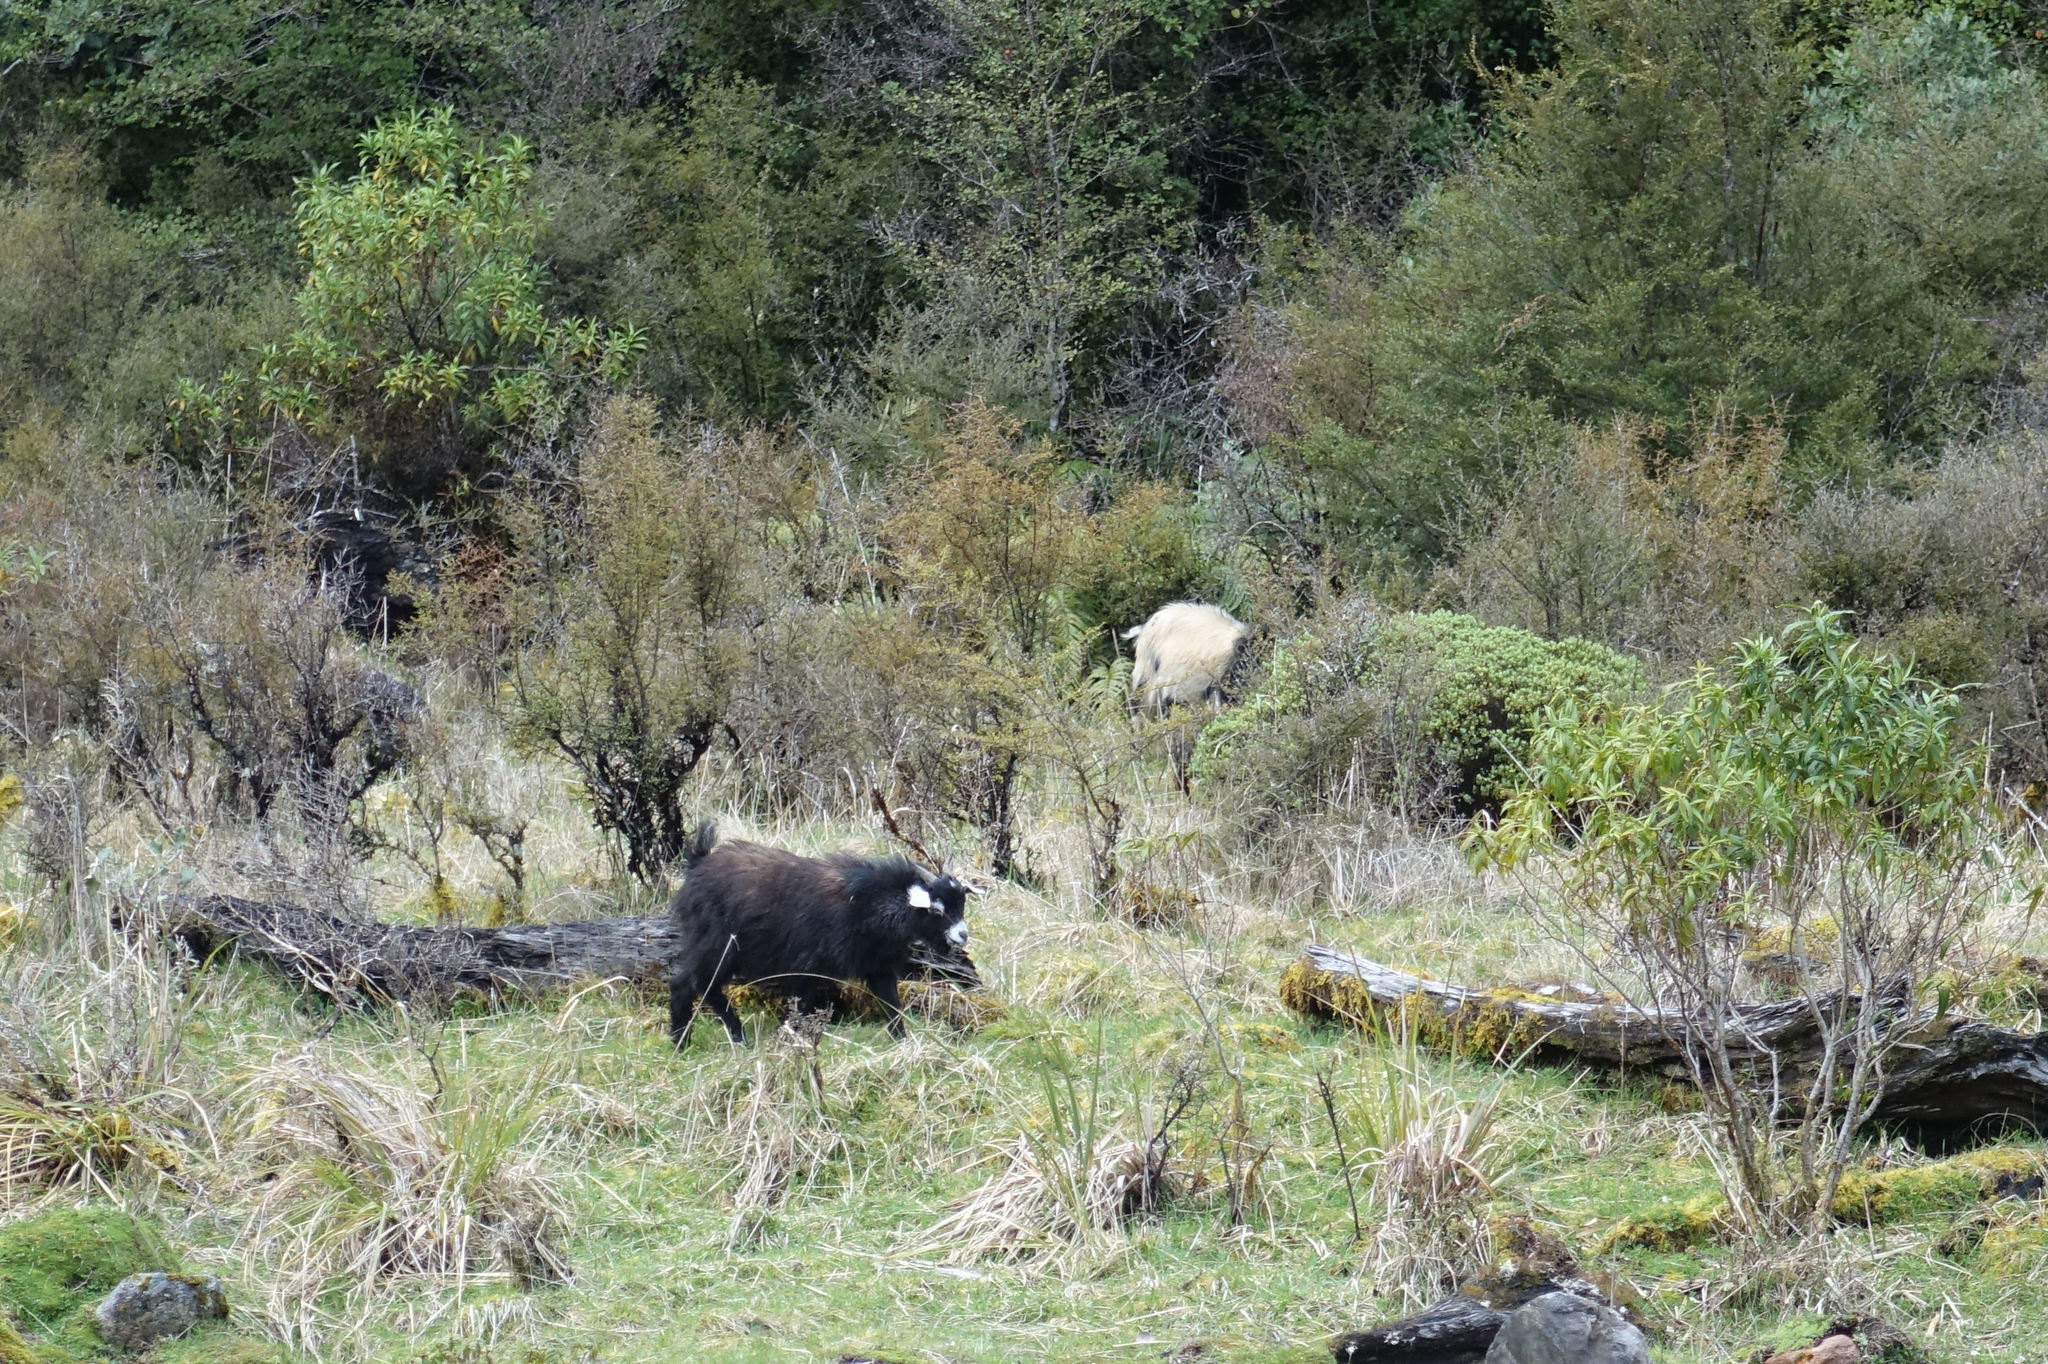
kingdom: Animalia
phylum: Chordata
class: Mammalia
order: Artiodactyla
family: Bovidae
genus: Capra
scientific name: Capra hircus
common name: Domestic goat
